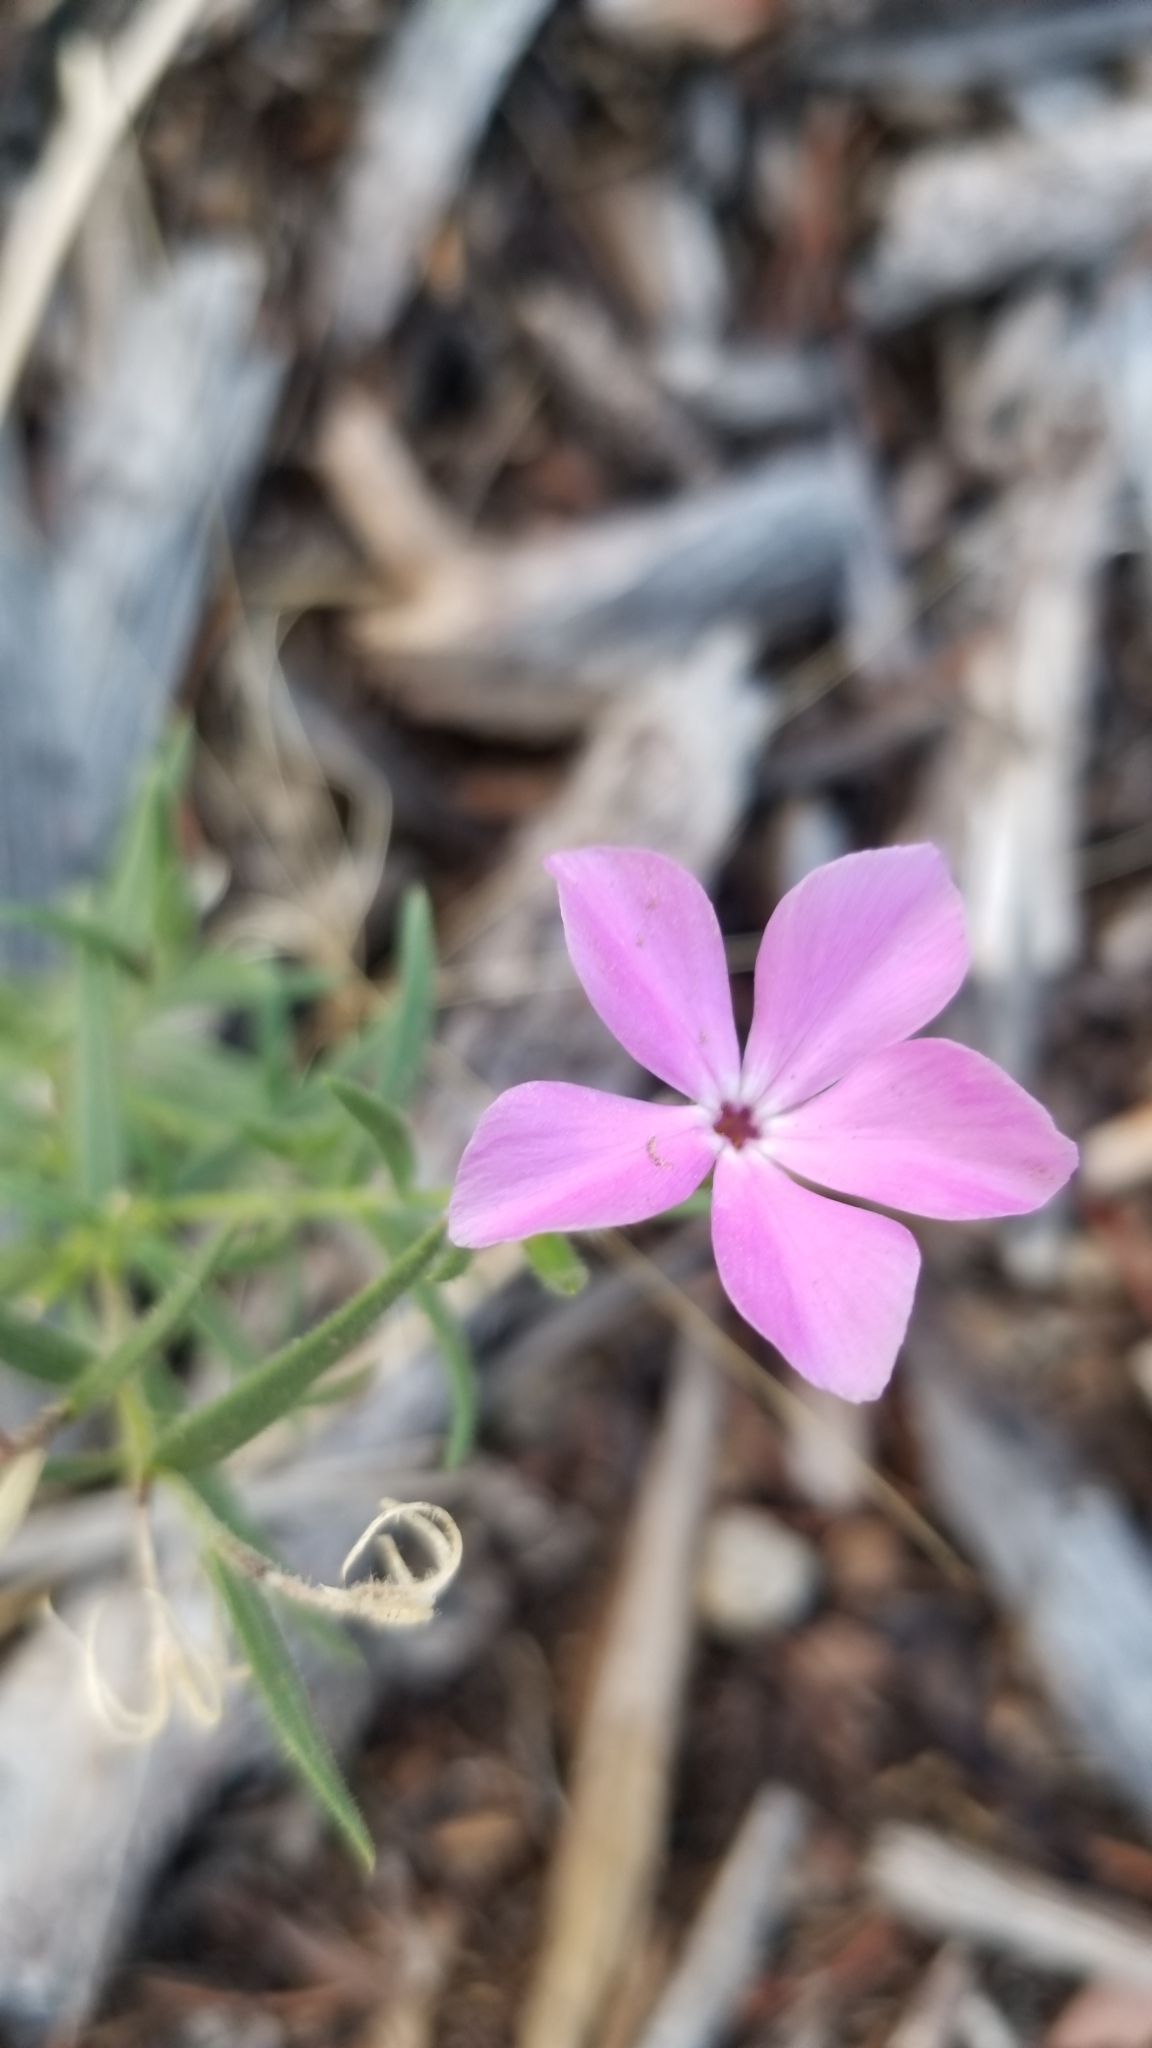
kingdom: Plantae
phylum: Tracheophyta
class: Magnoliopsida
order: Ericales
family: Polemoniaceae
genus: Phlox
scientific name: Phlox nana
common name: Santa fe phlox
